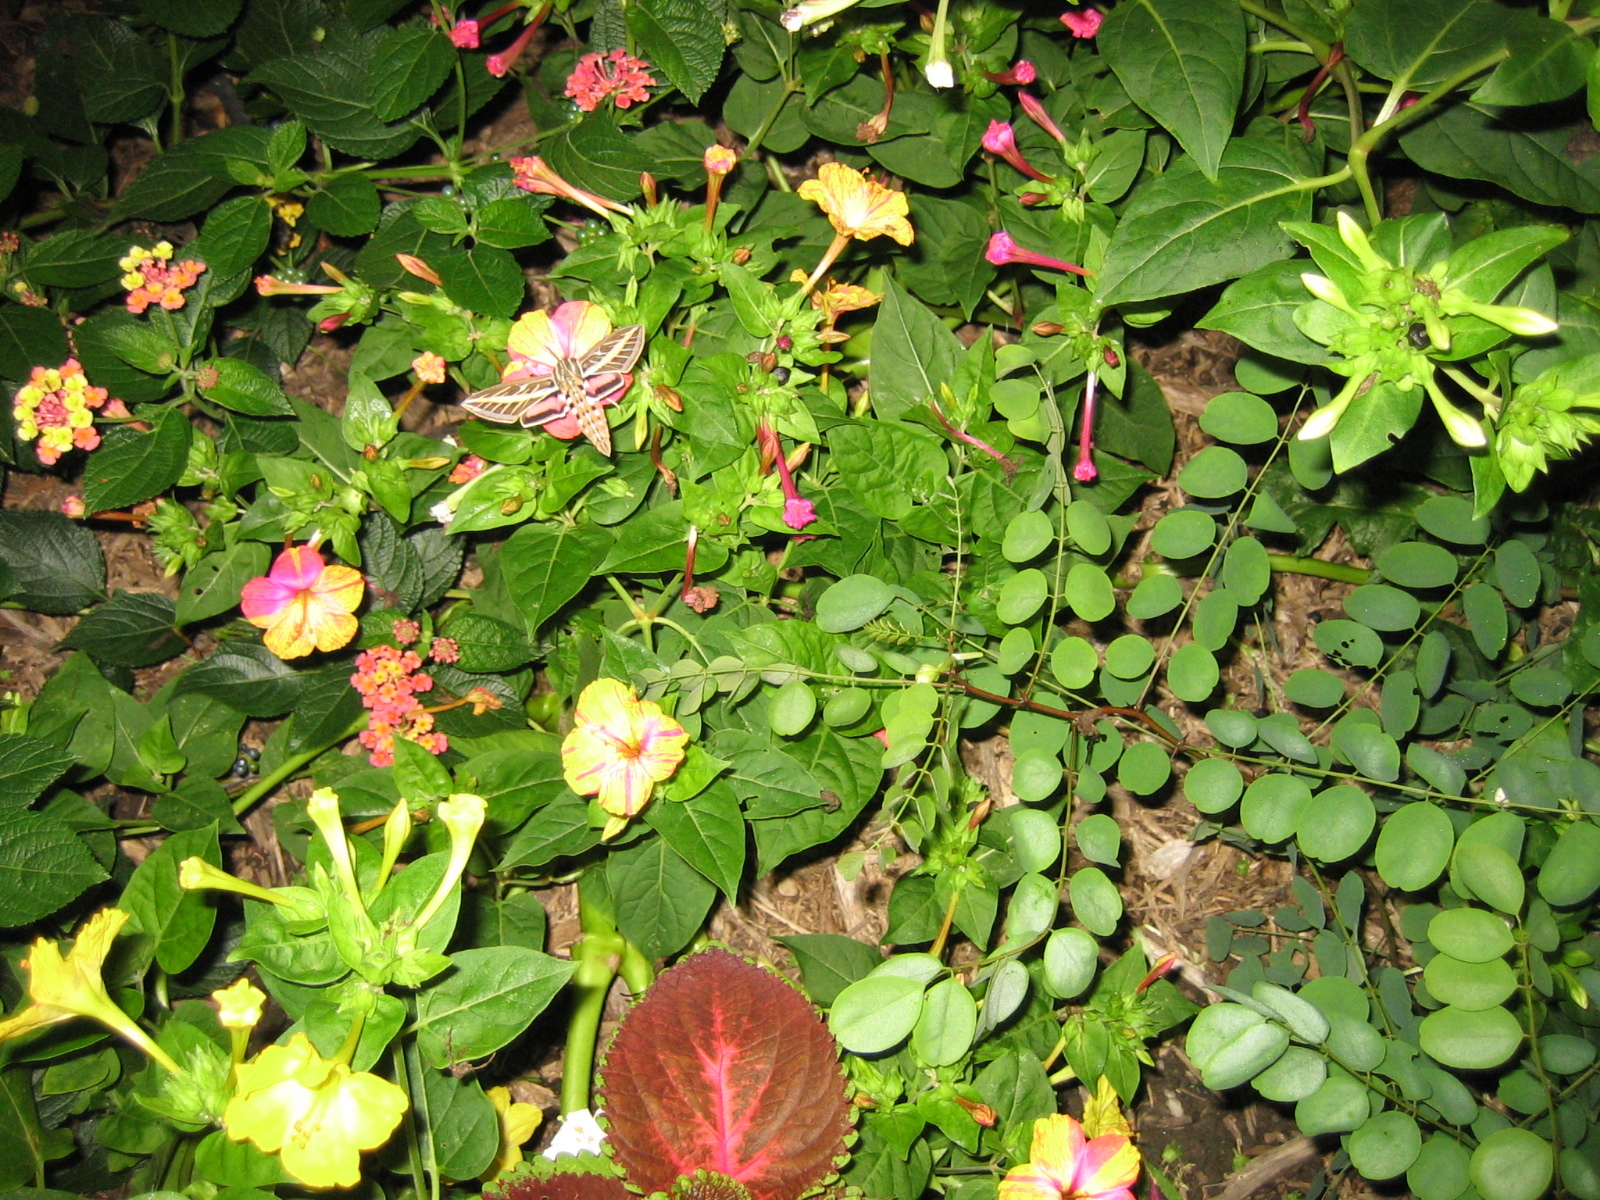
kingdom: Animalia
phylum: Arthropoda
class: Insecta
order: Lepidoptera
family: Sphingidae
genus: Hyles
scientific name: Hyles lineata
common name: White-lined sphinx
